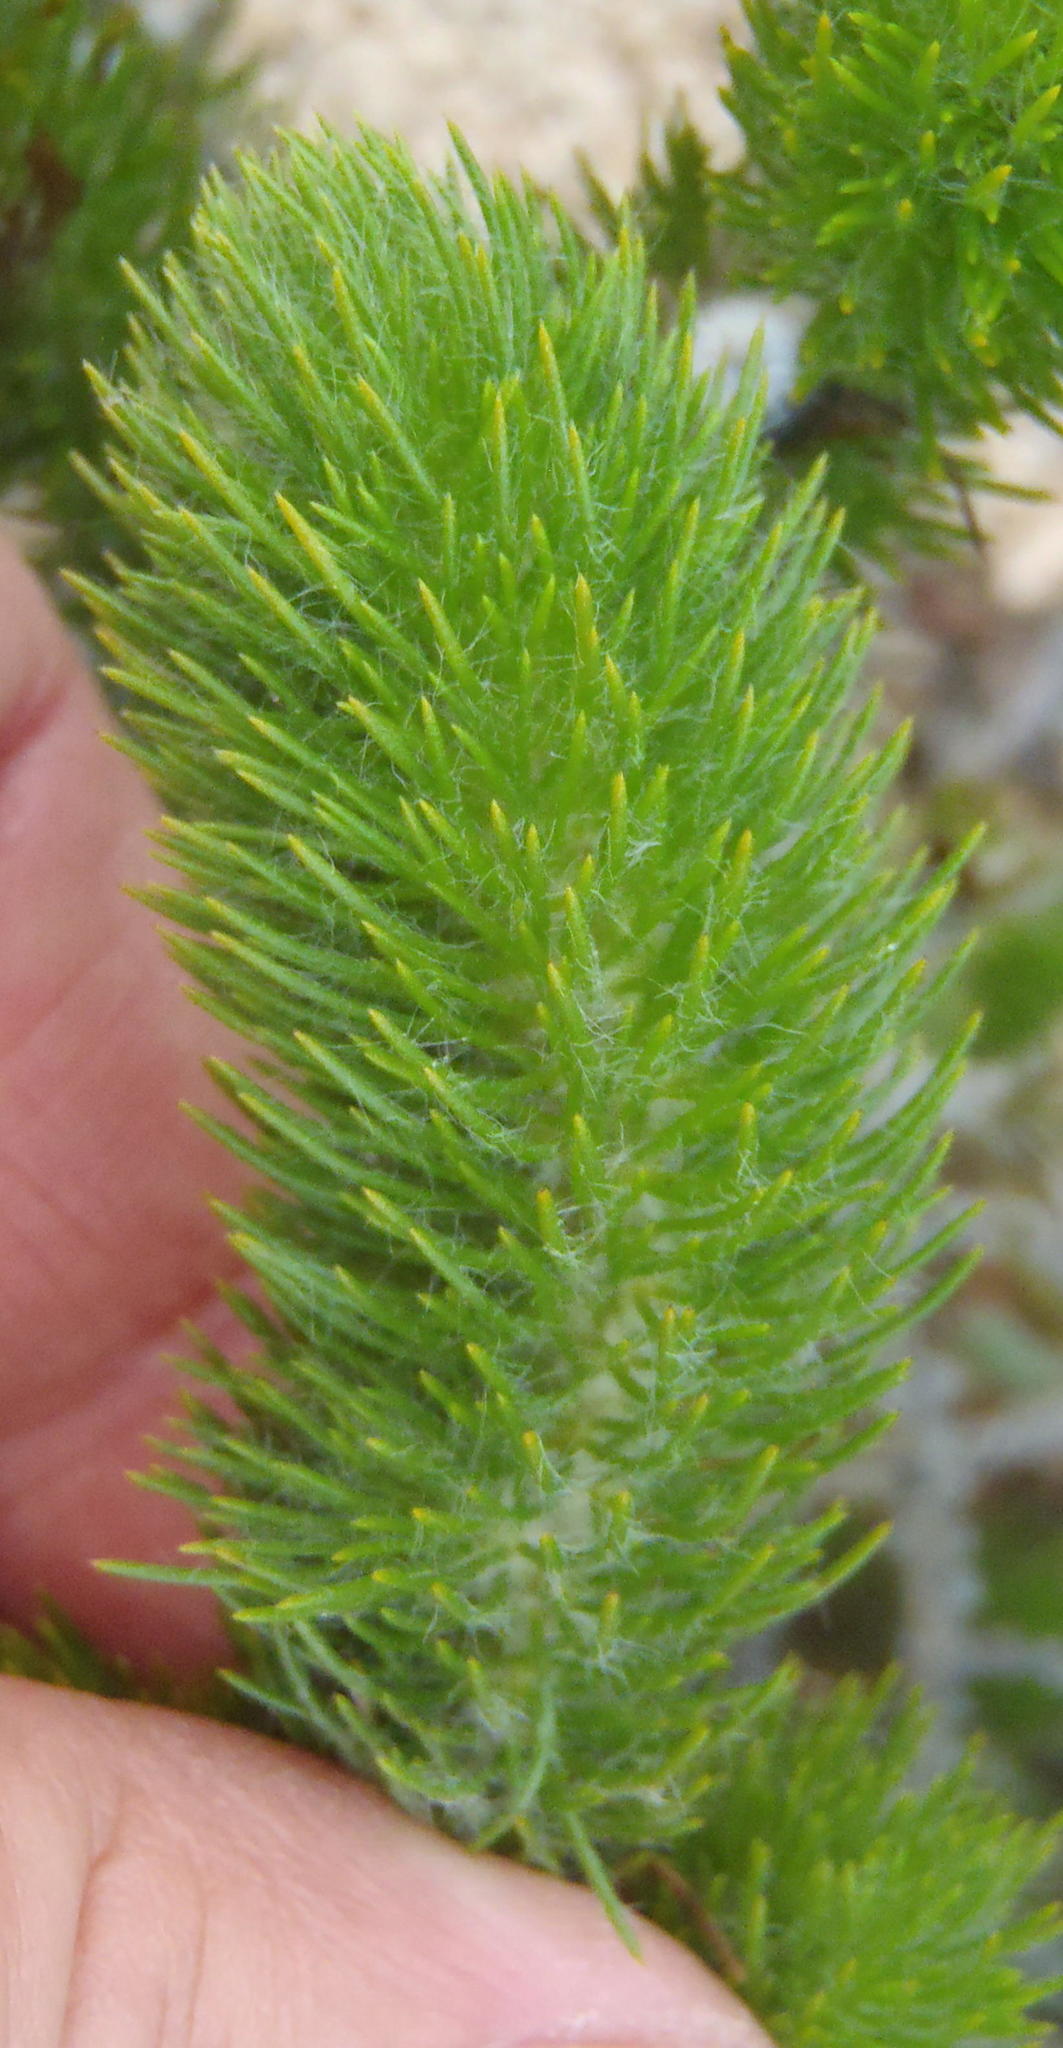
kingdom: Plantae
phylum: Tracheophyta
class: Magnoliopsida
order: Fabales
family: Fabaceae
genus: Aspalathus
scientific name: Aspalathus alopecurus
